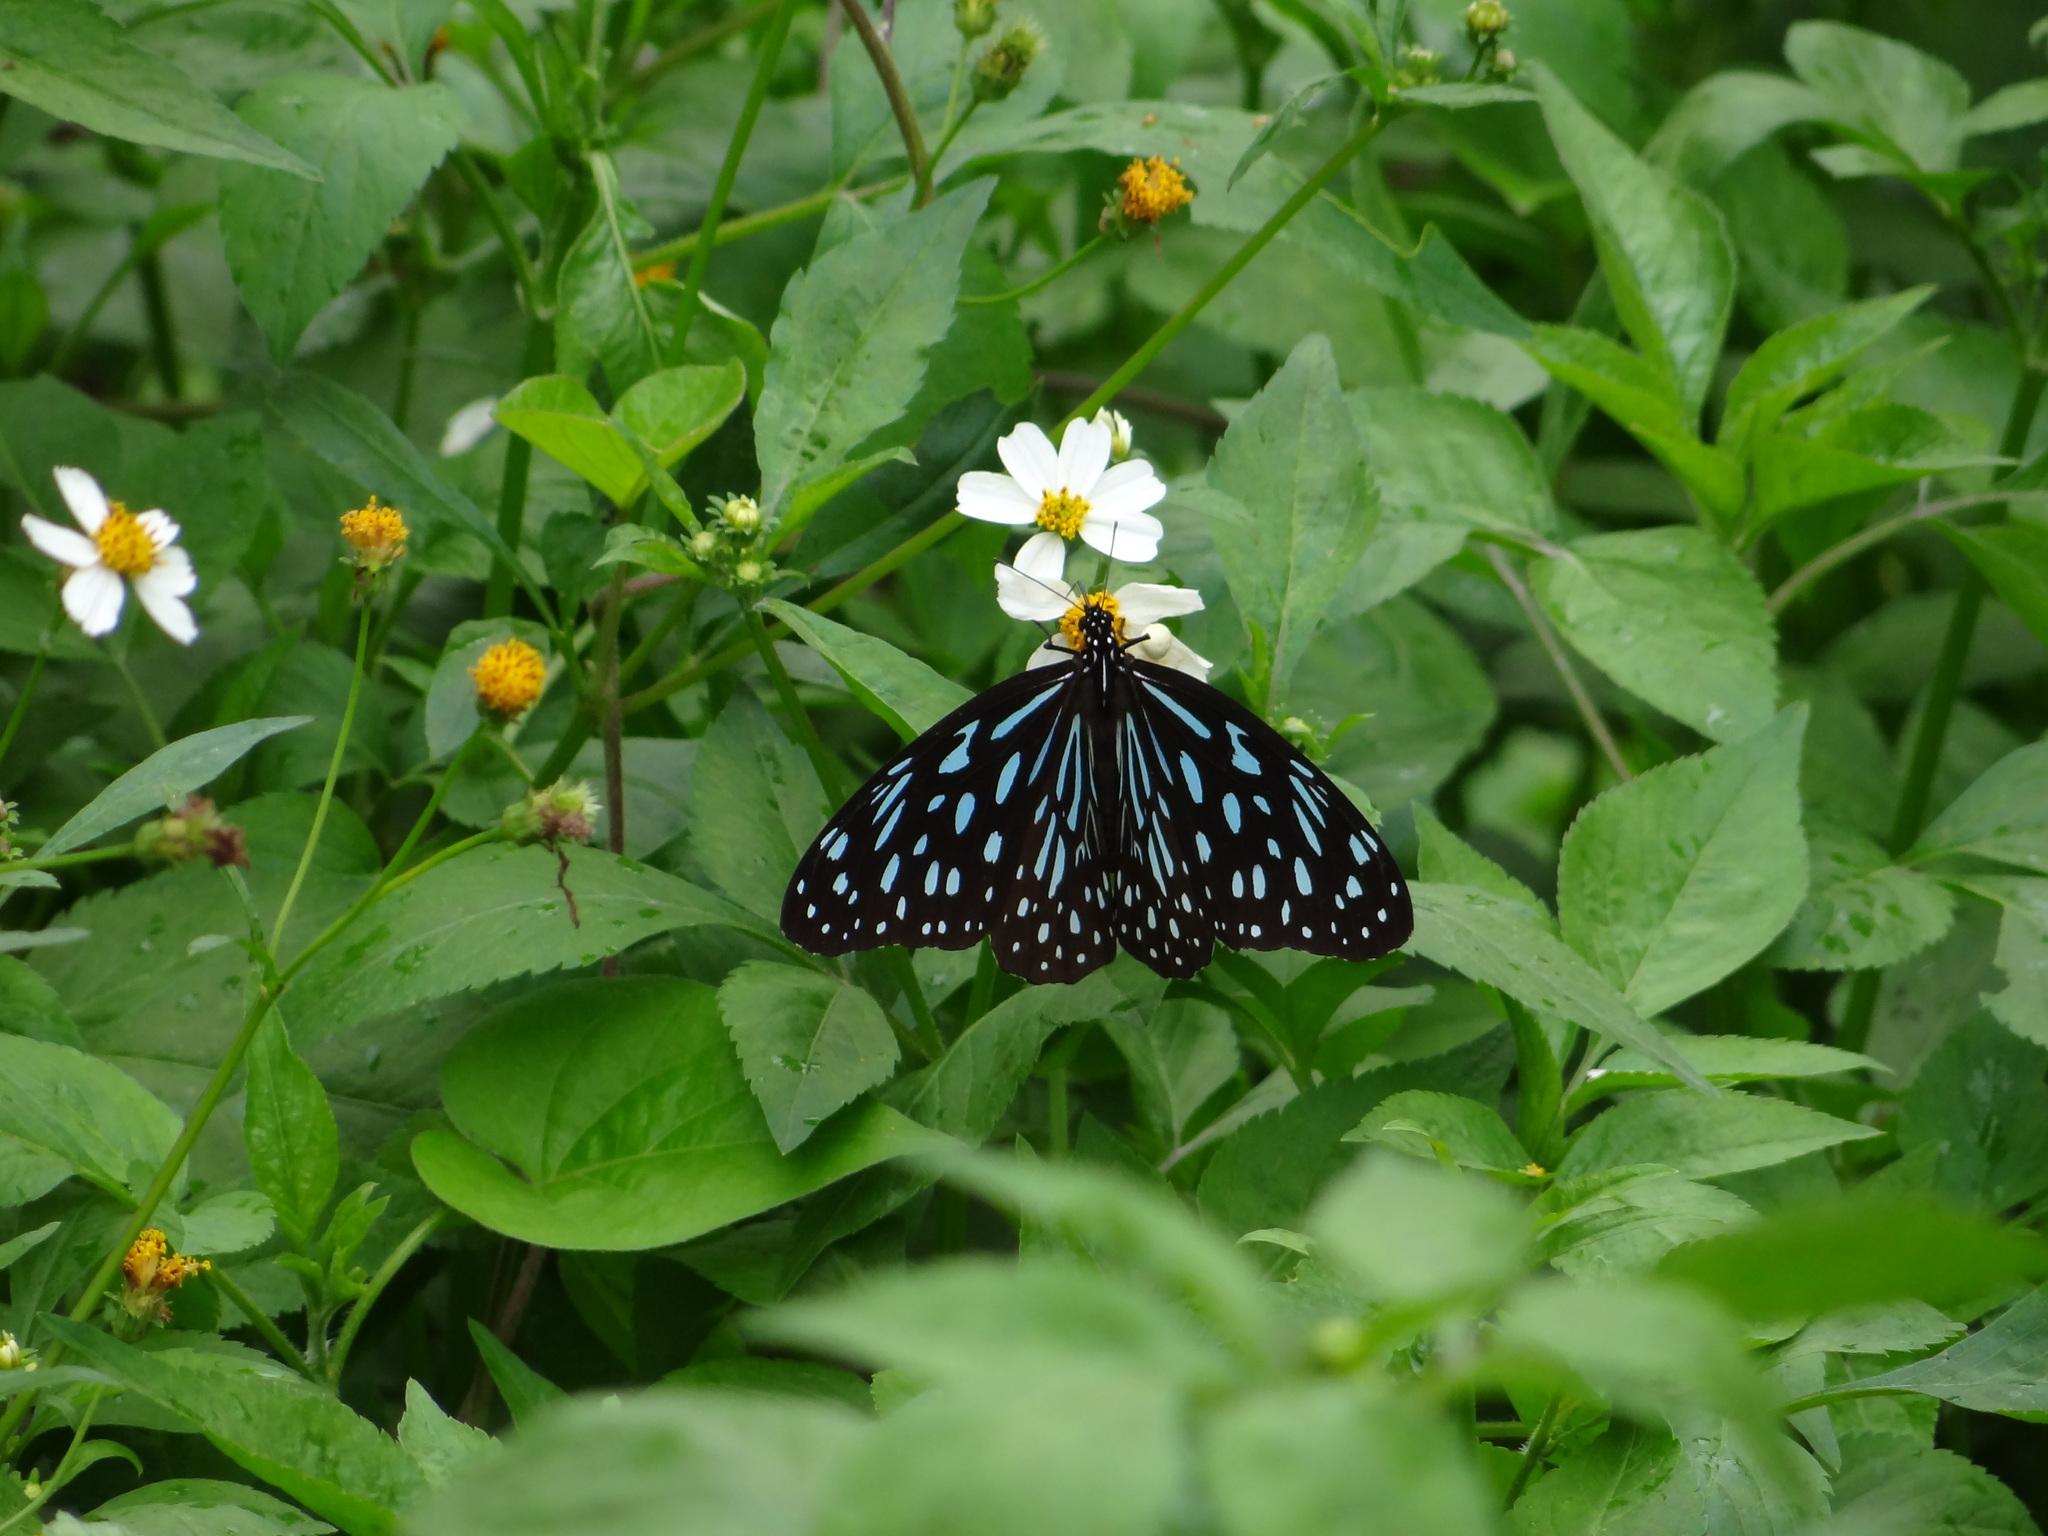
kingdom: Animalia
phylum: Arthropoda
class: Insecta
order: Lepidoptera
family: Nymphalidae
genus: Tirumala
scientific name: Tirumala septentrionis
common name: Dark blue tiger butterfly
